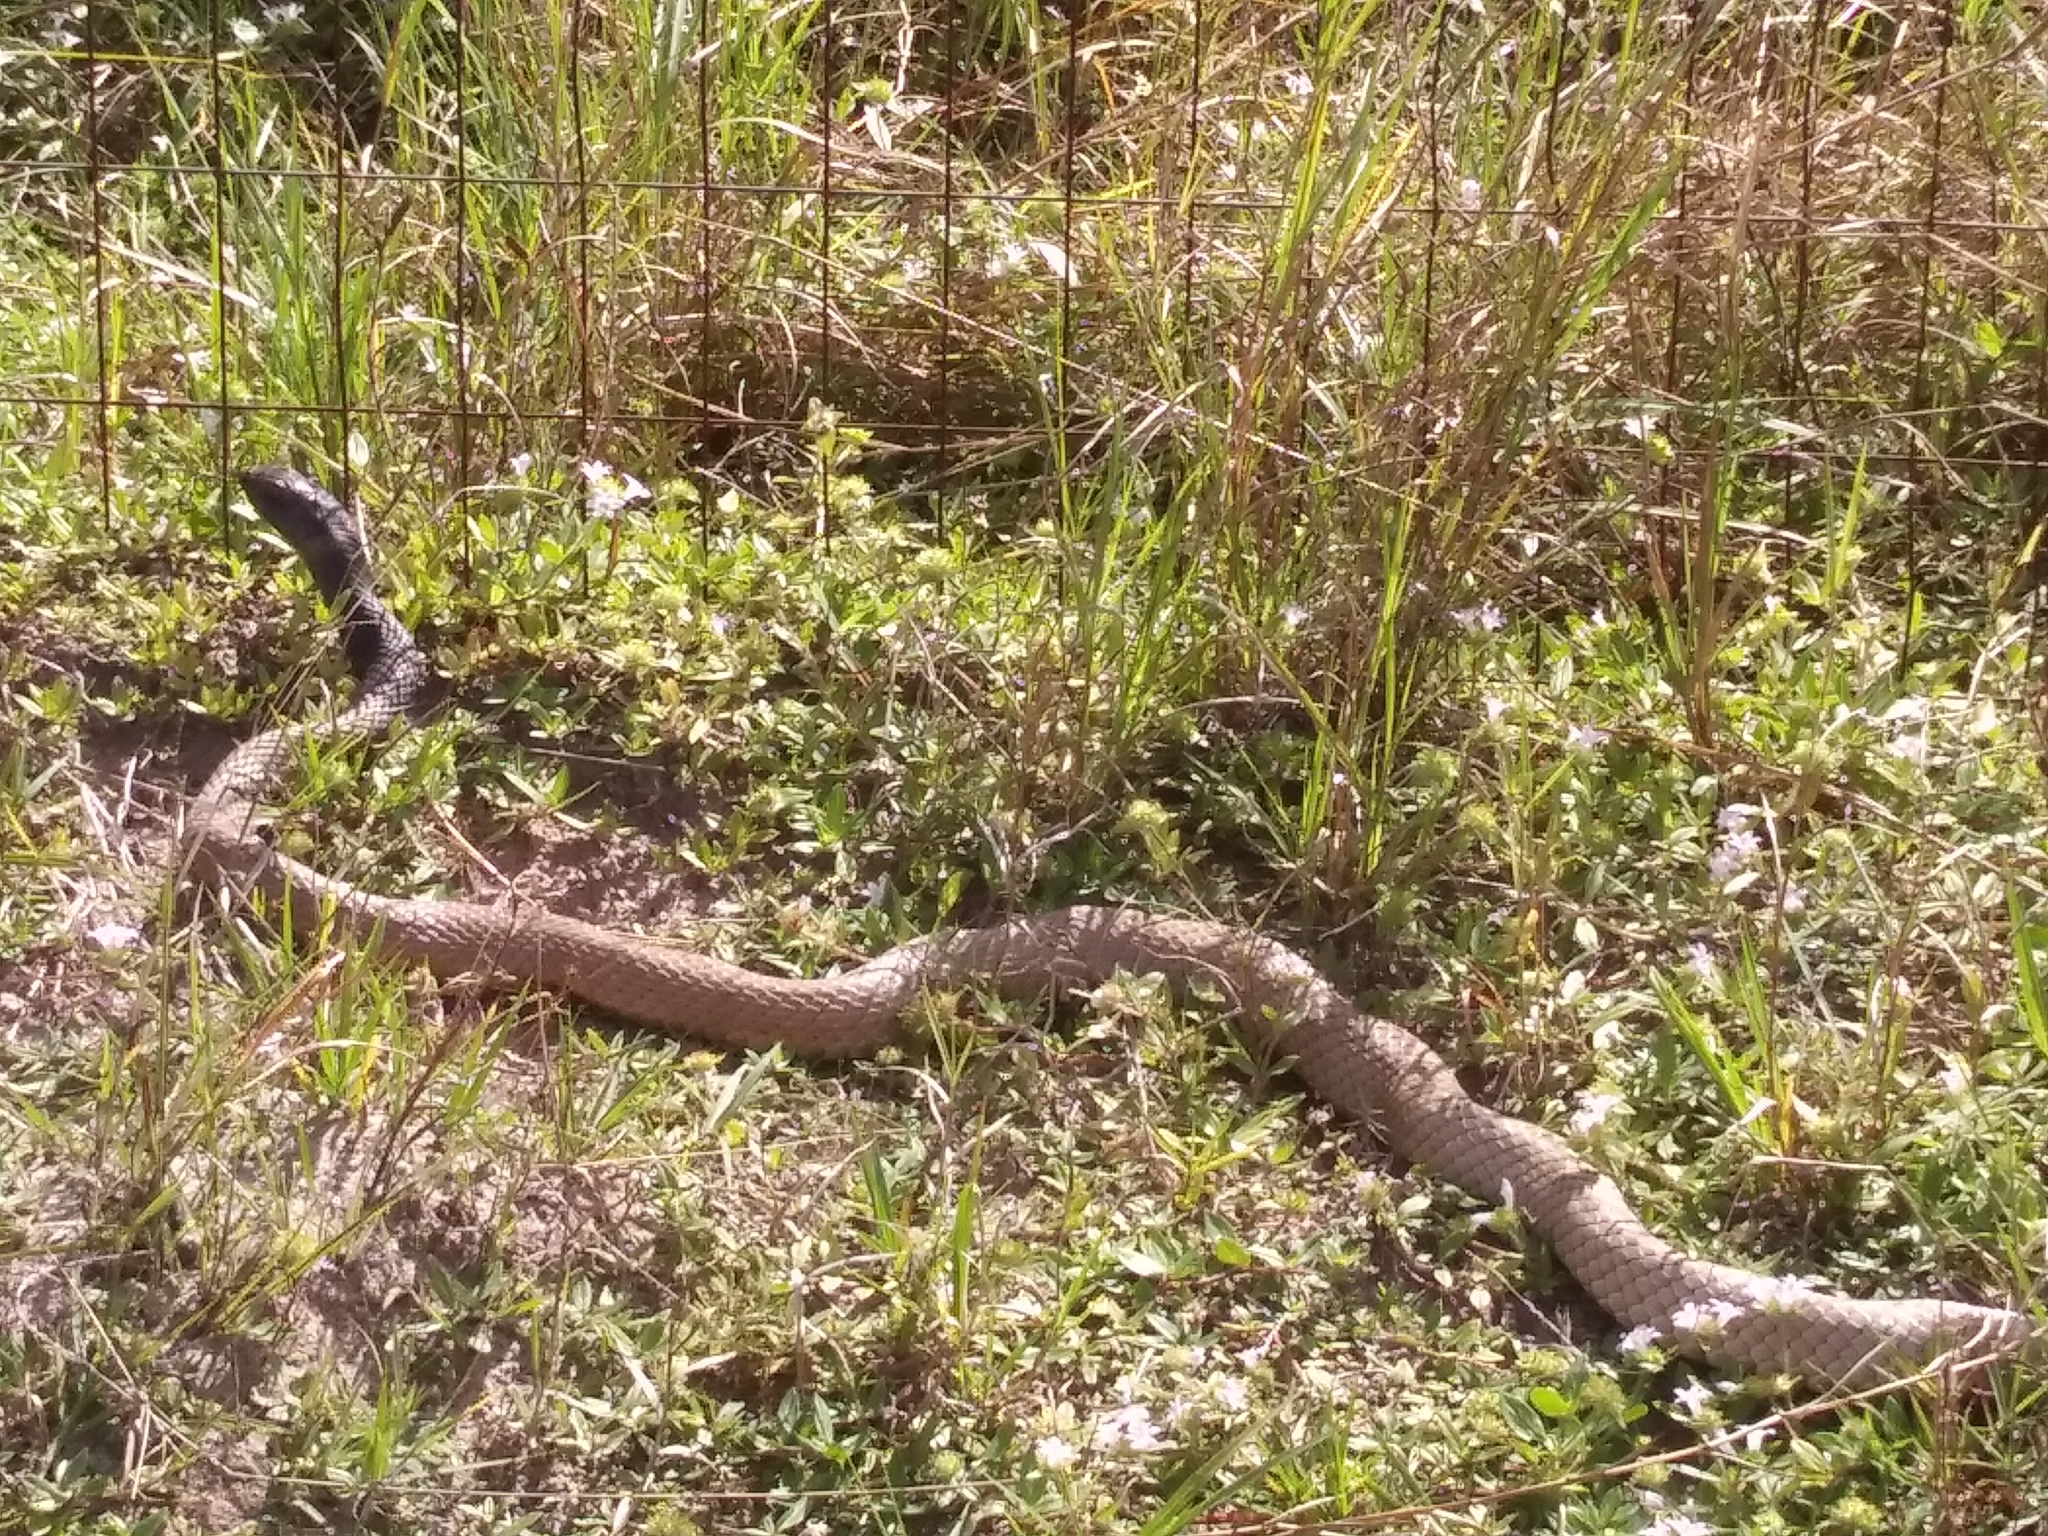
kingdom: Animalia
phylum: Chordata
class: Squamata
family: Colubridae
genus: Masticophis
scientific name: Masticophis flagellum
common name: Coachwhip
